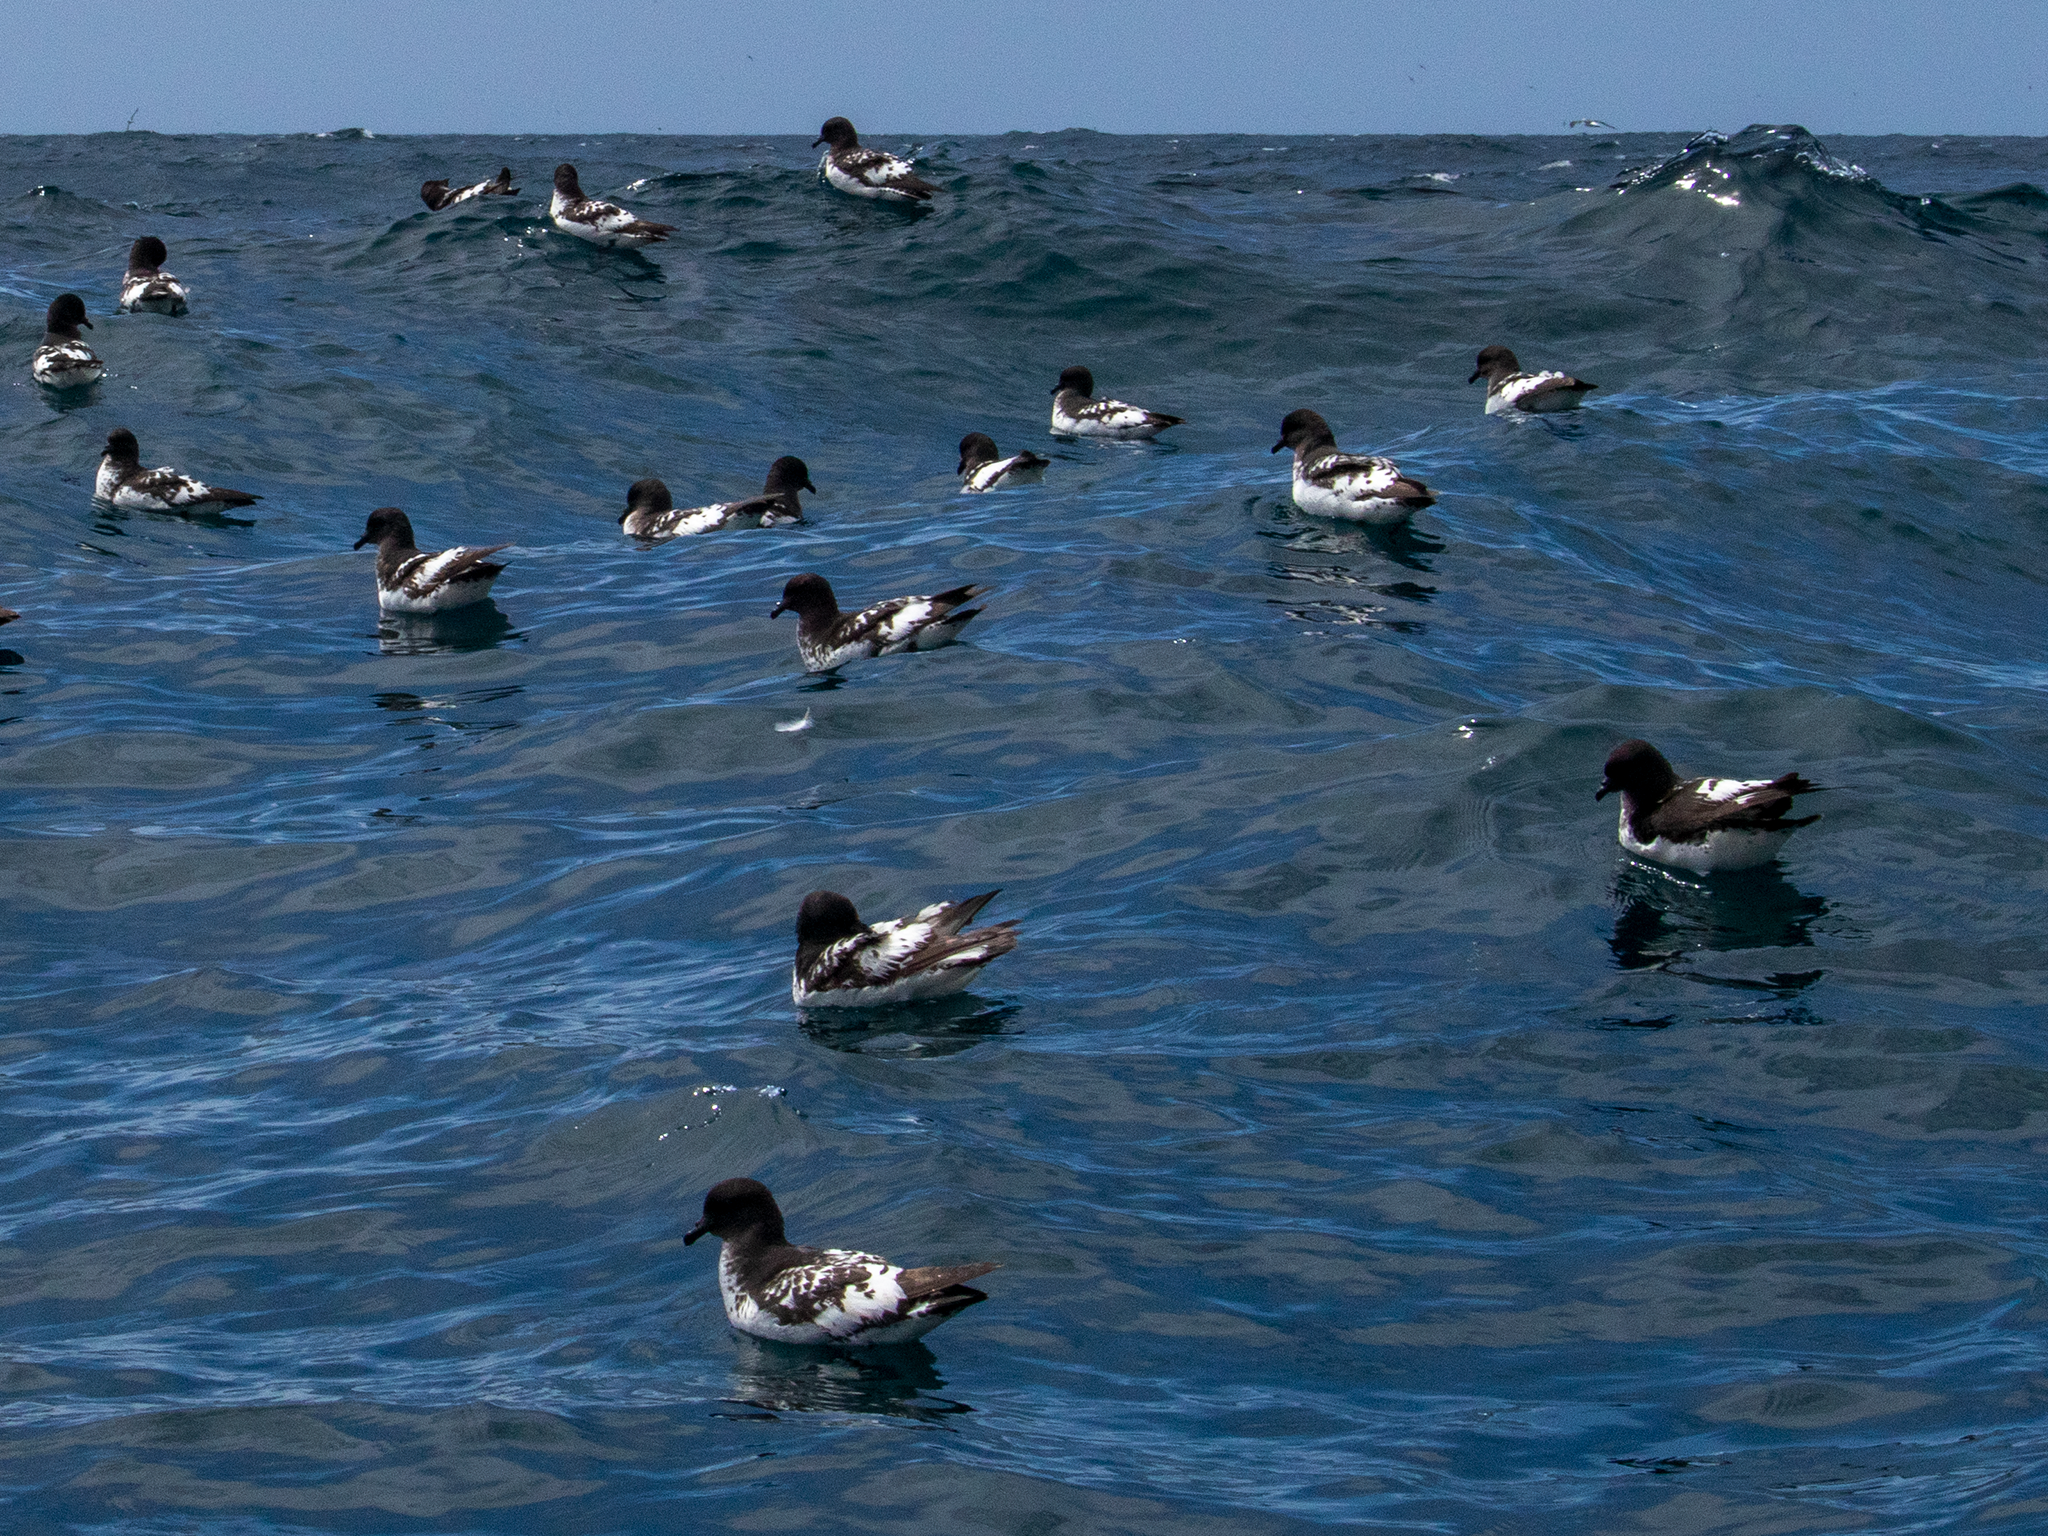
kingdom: Animalia
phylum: Chordata
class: Aves
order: Procellariiformes
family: Procellariidae
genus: Daption
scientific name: Daption capense
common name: Cape petrel
